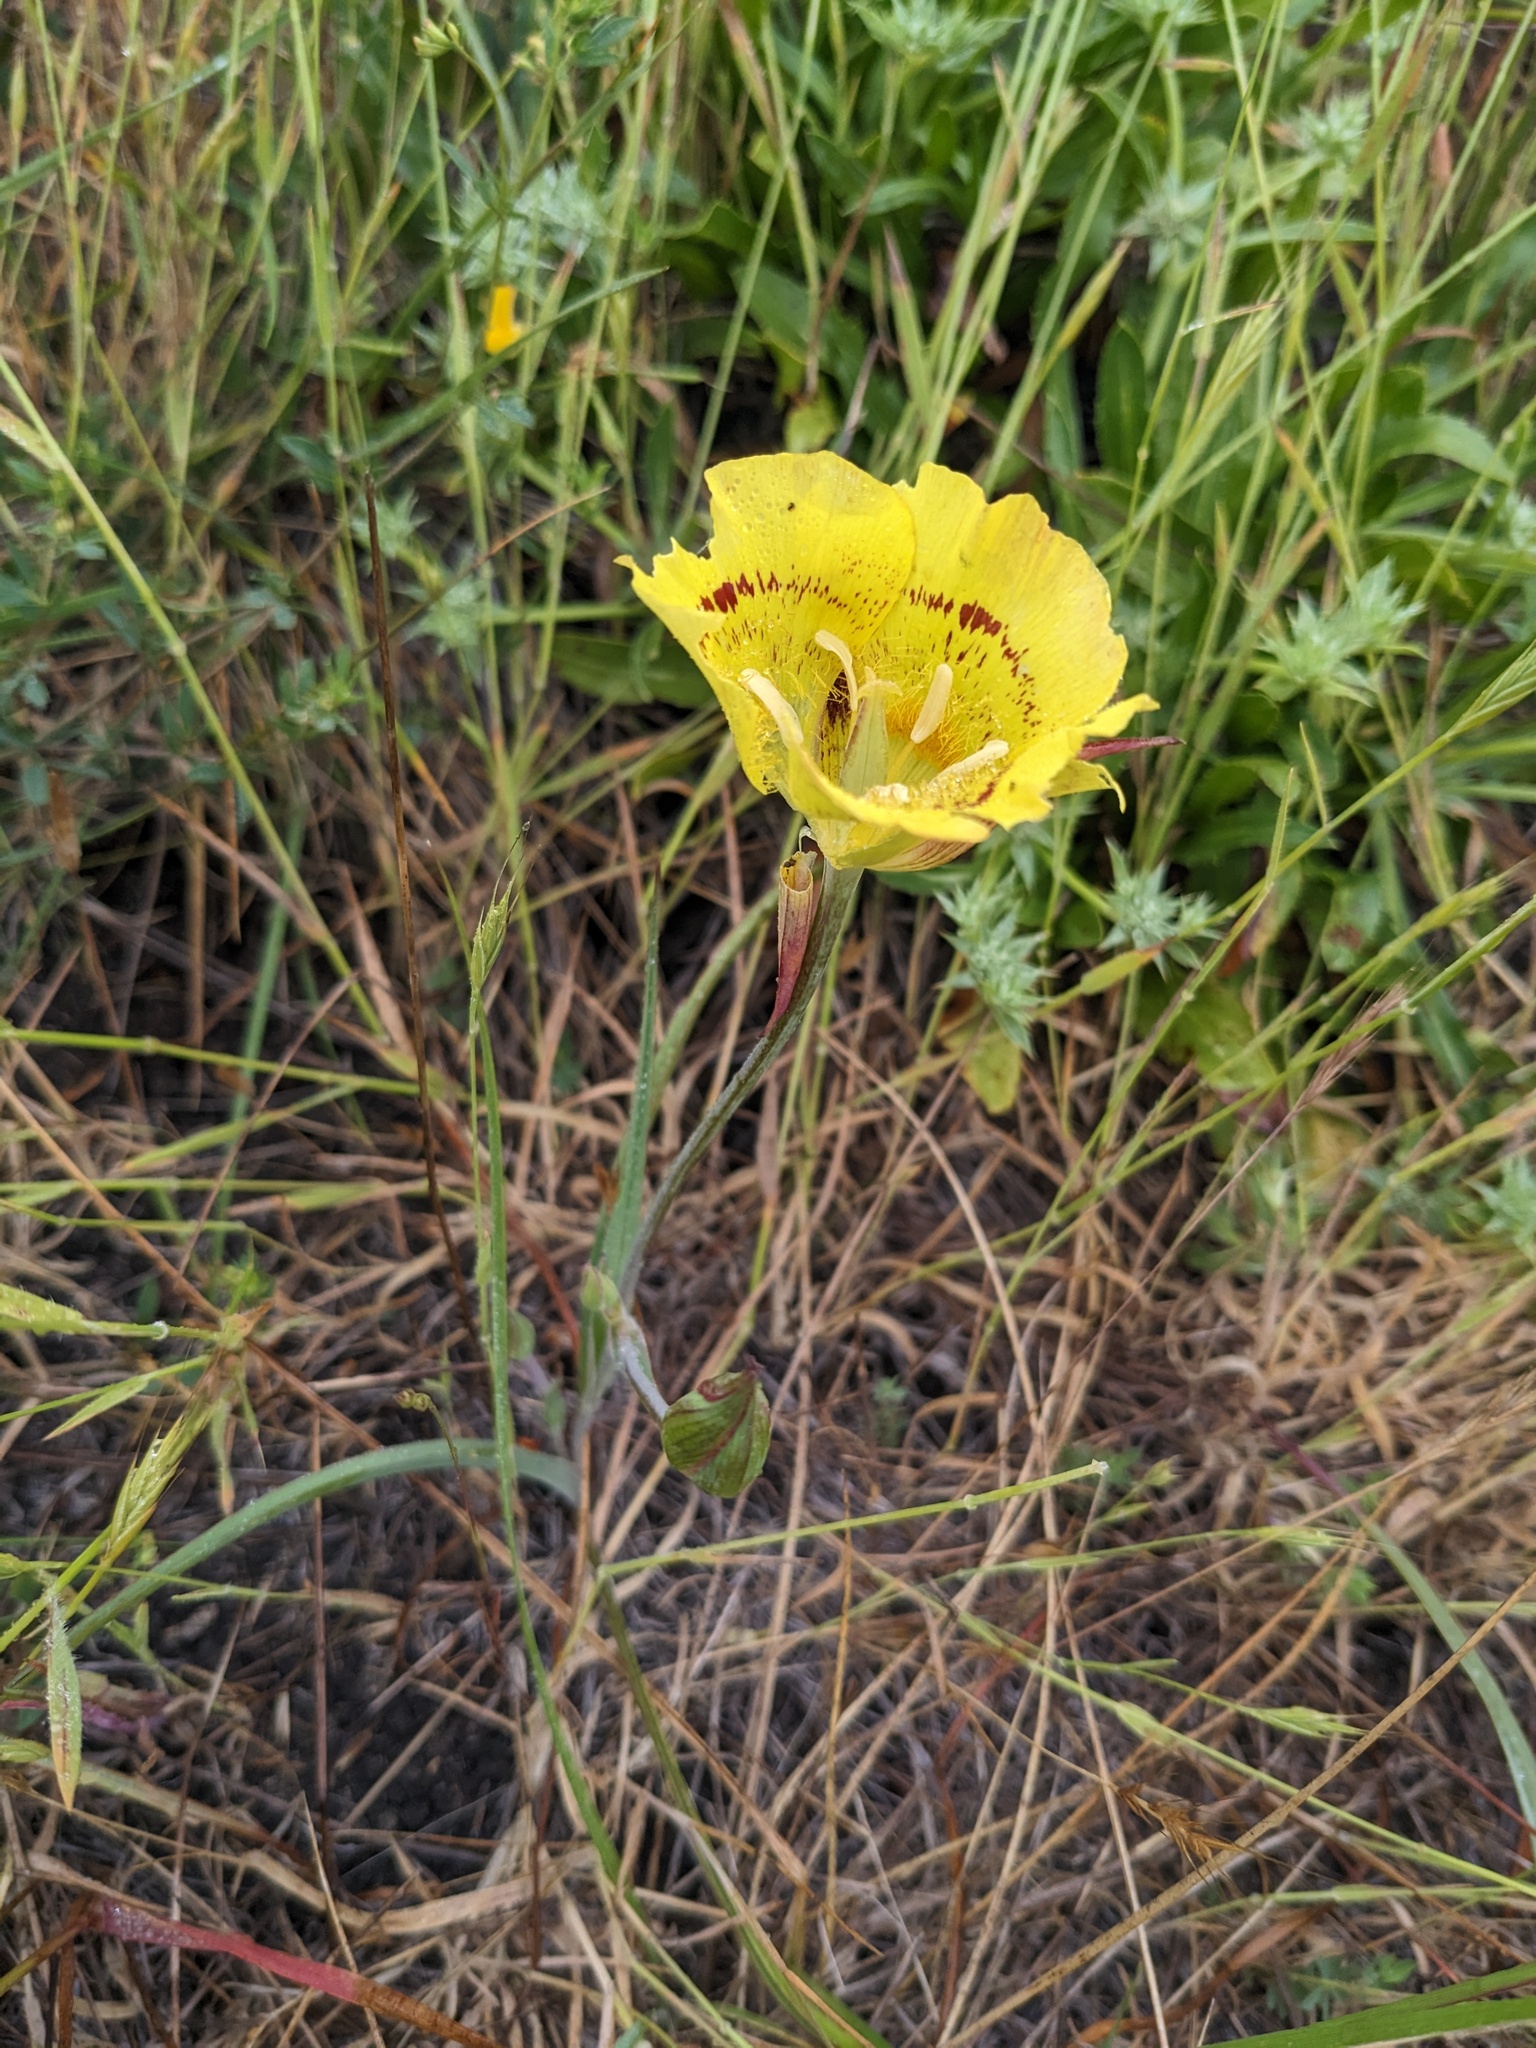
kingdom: Plantae
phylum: Tracheophyta
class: Liliopsida
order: Liliales
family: Liliaceae
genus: Calochortus
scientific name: Calochortus luteus
